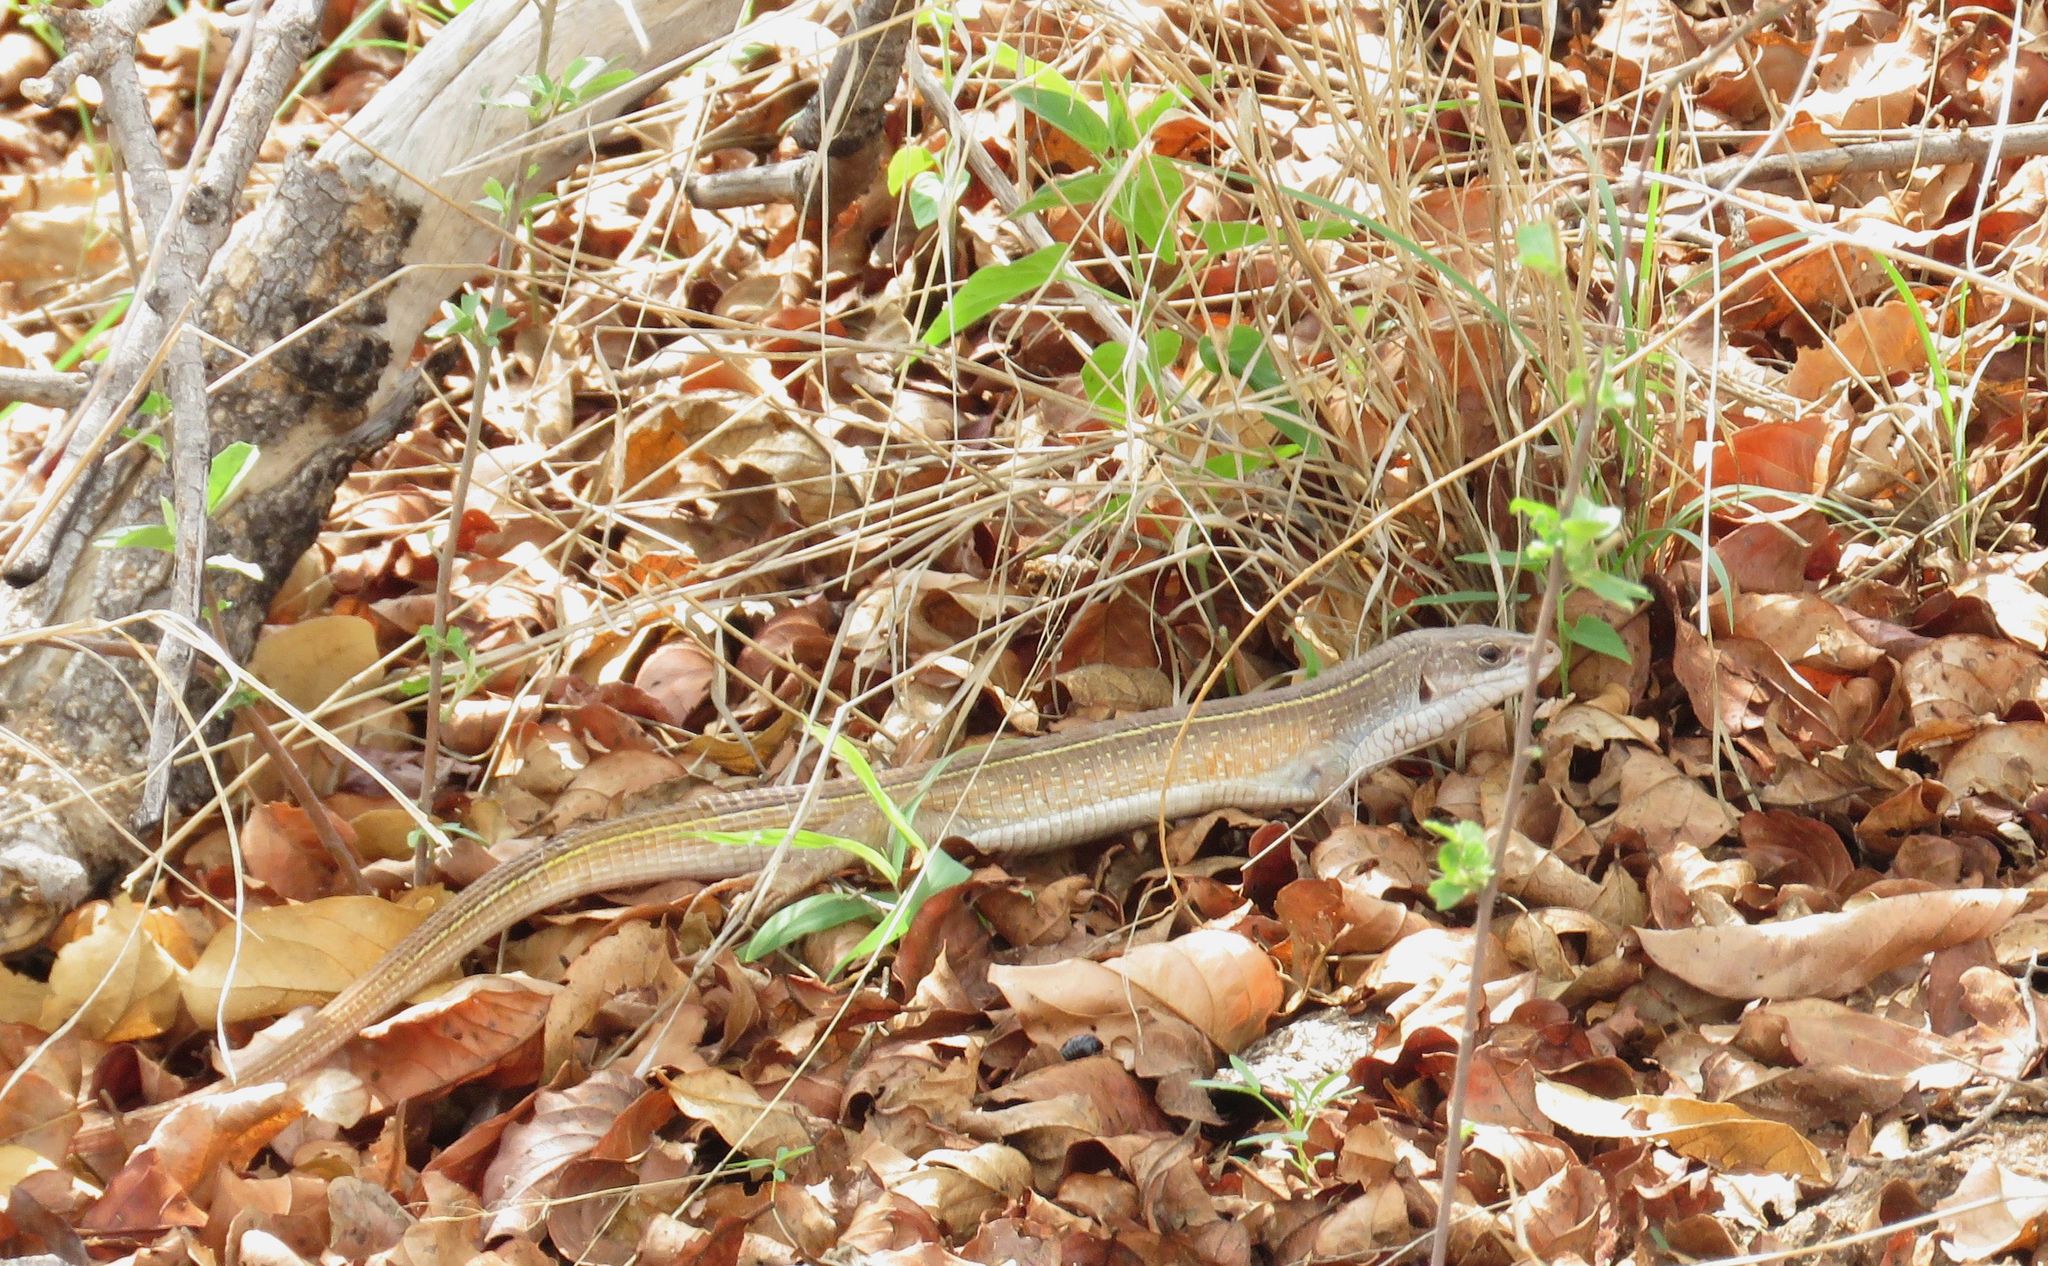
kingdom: Animalia
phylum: Chordata
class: Squamata
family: Gerrhosauridae
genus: Gerrhosaurus
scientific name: Gerrhosaurus nigrolineatus
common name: Black-lined plated lizard
